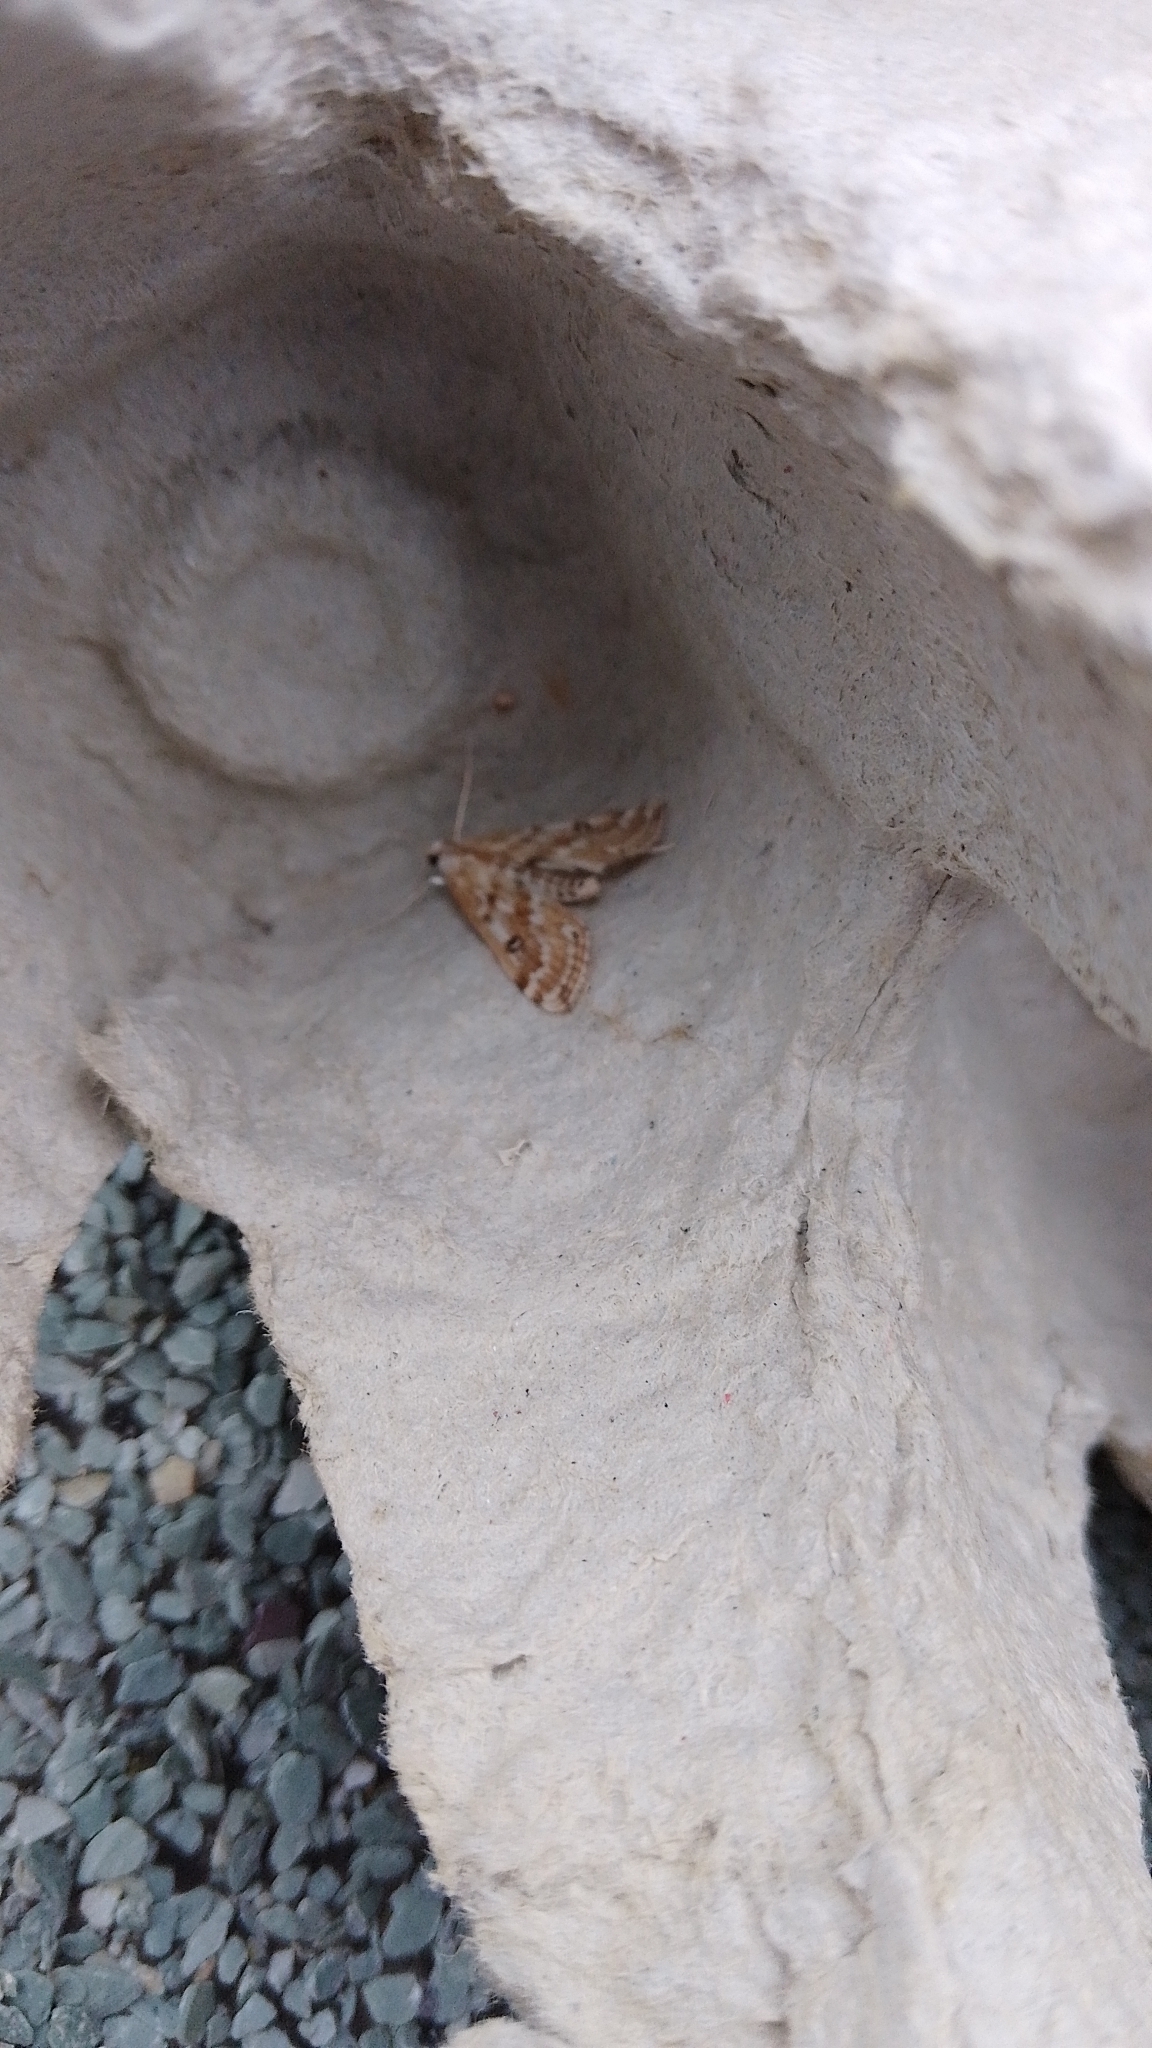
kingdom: Animalia
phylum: Arthropoda
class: Insecta
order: Lepidoptera
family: Crambidae
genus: Parapoynx
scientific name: Parapoynx stratiotata
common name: Ringed china-mark
